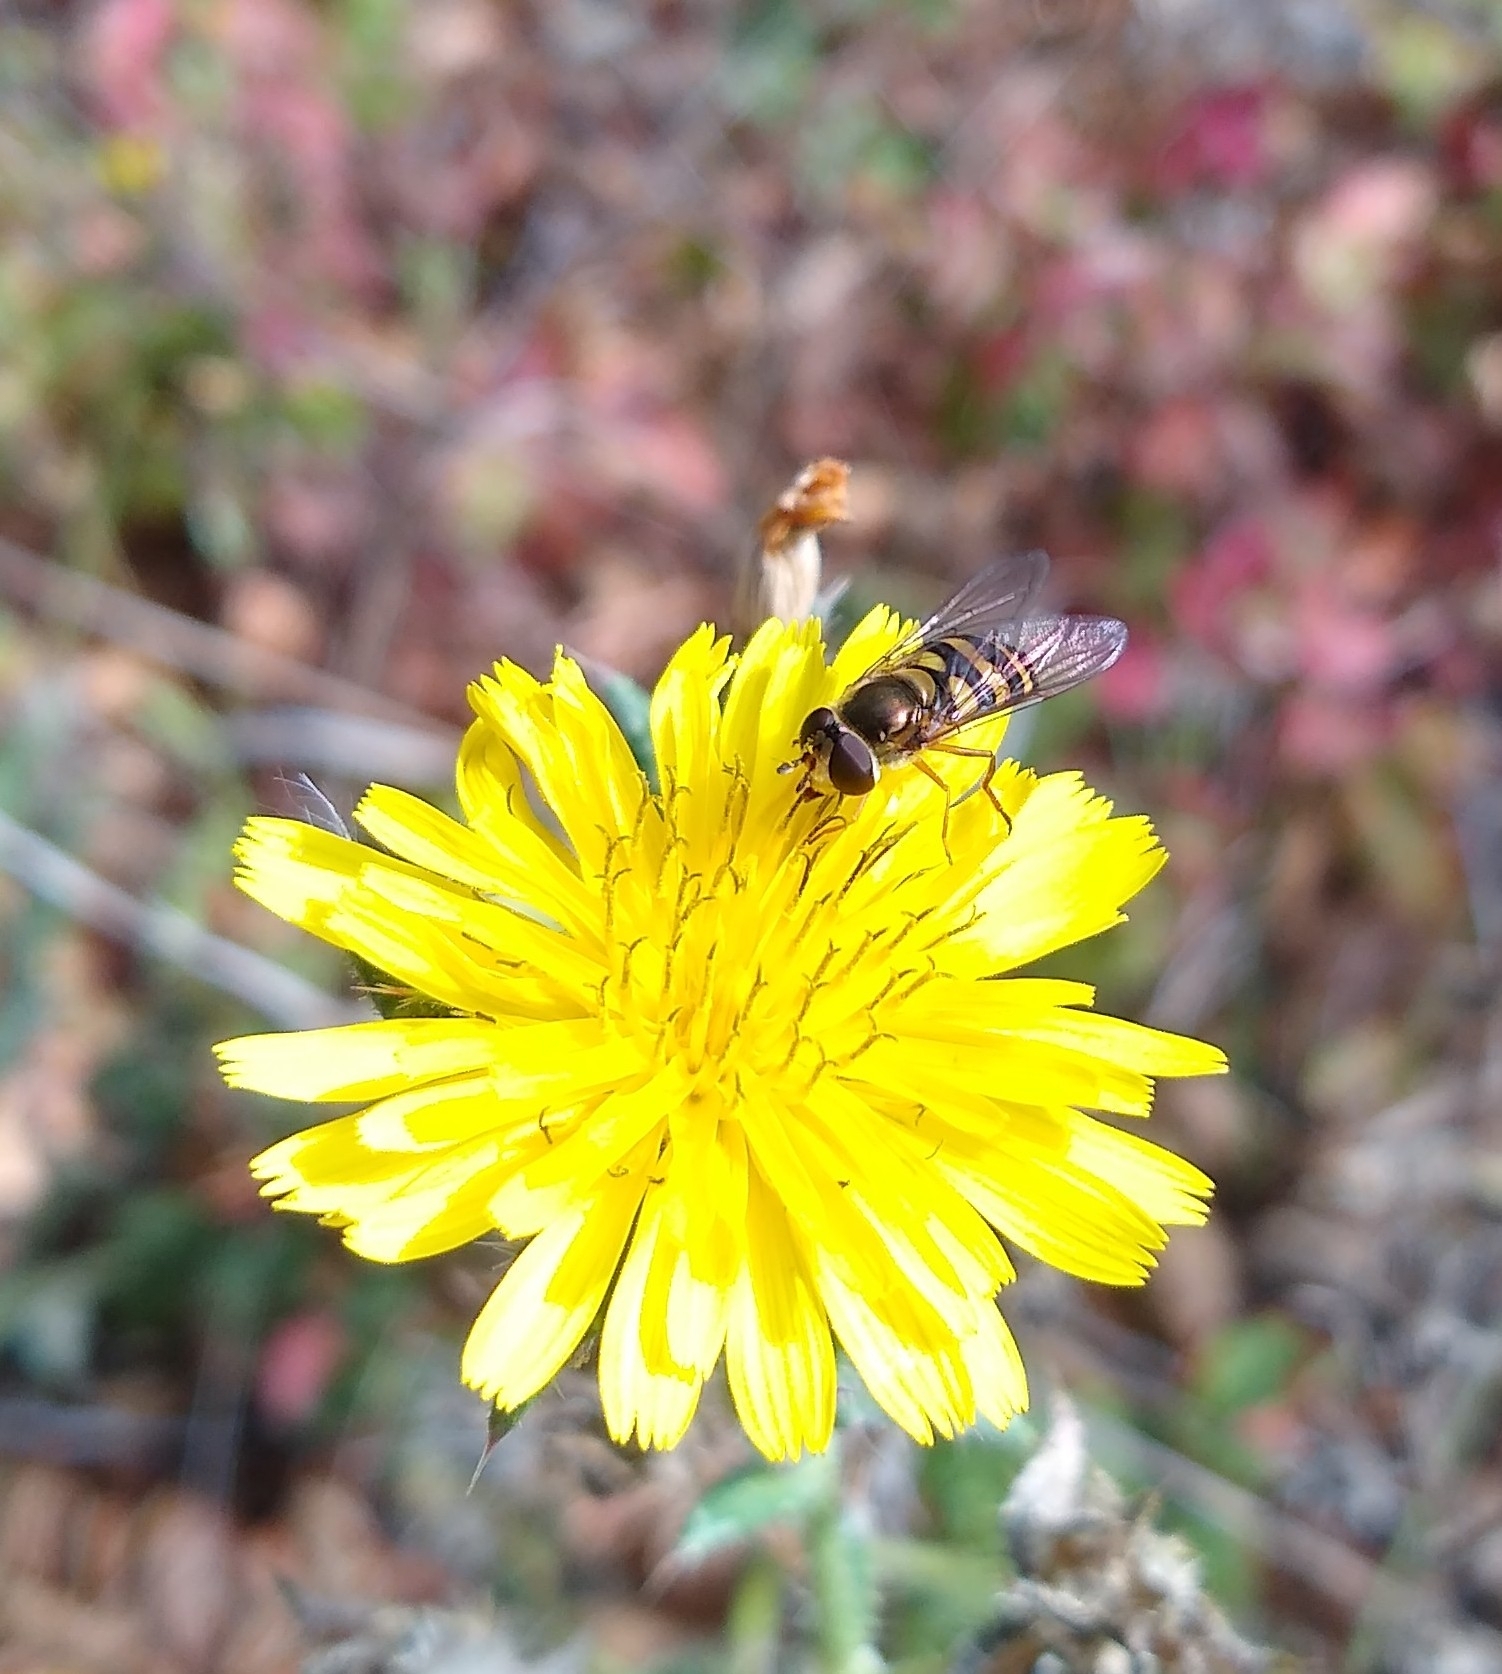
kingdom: Animalia
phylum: Arthropoda
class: Insecta
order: Diptera
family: Syrphidae
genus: Eupeodes
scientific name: Eupeodes fumipennis
